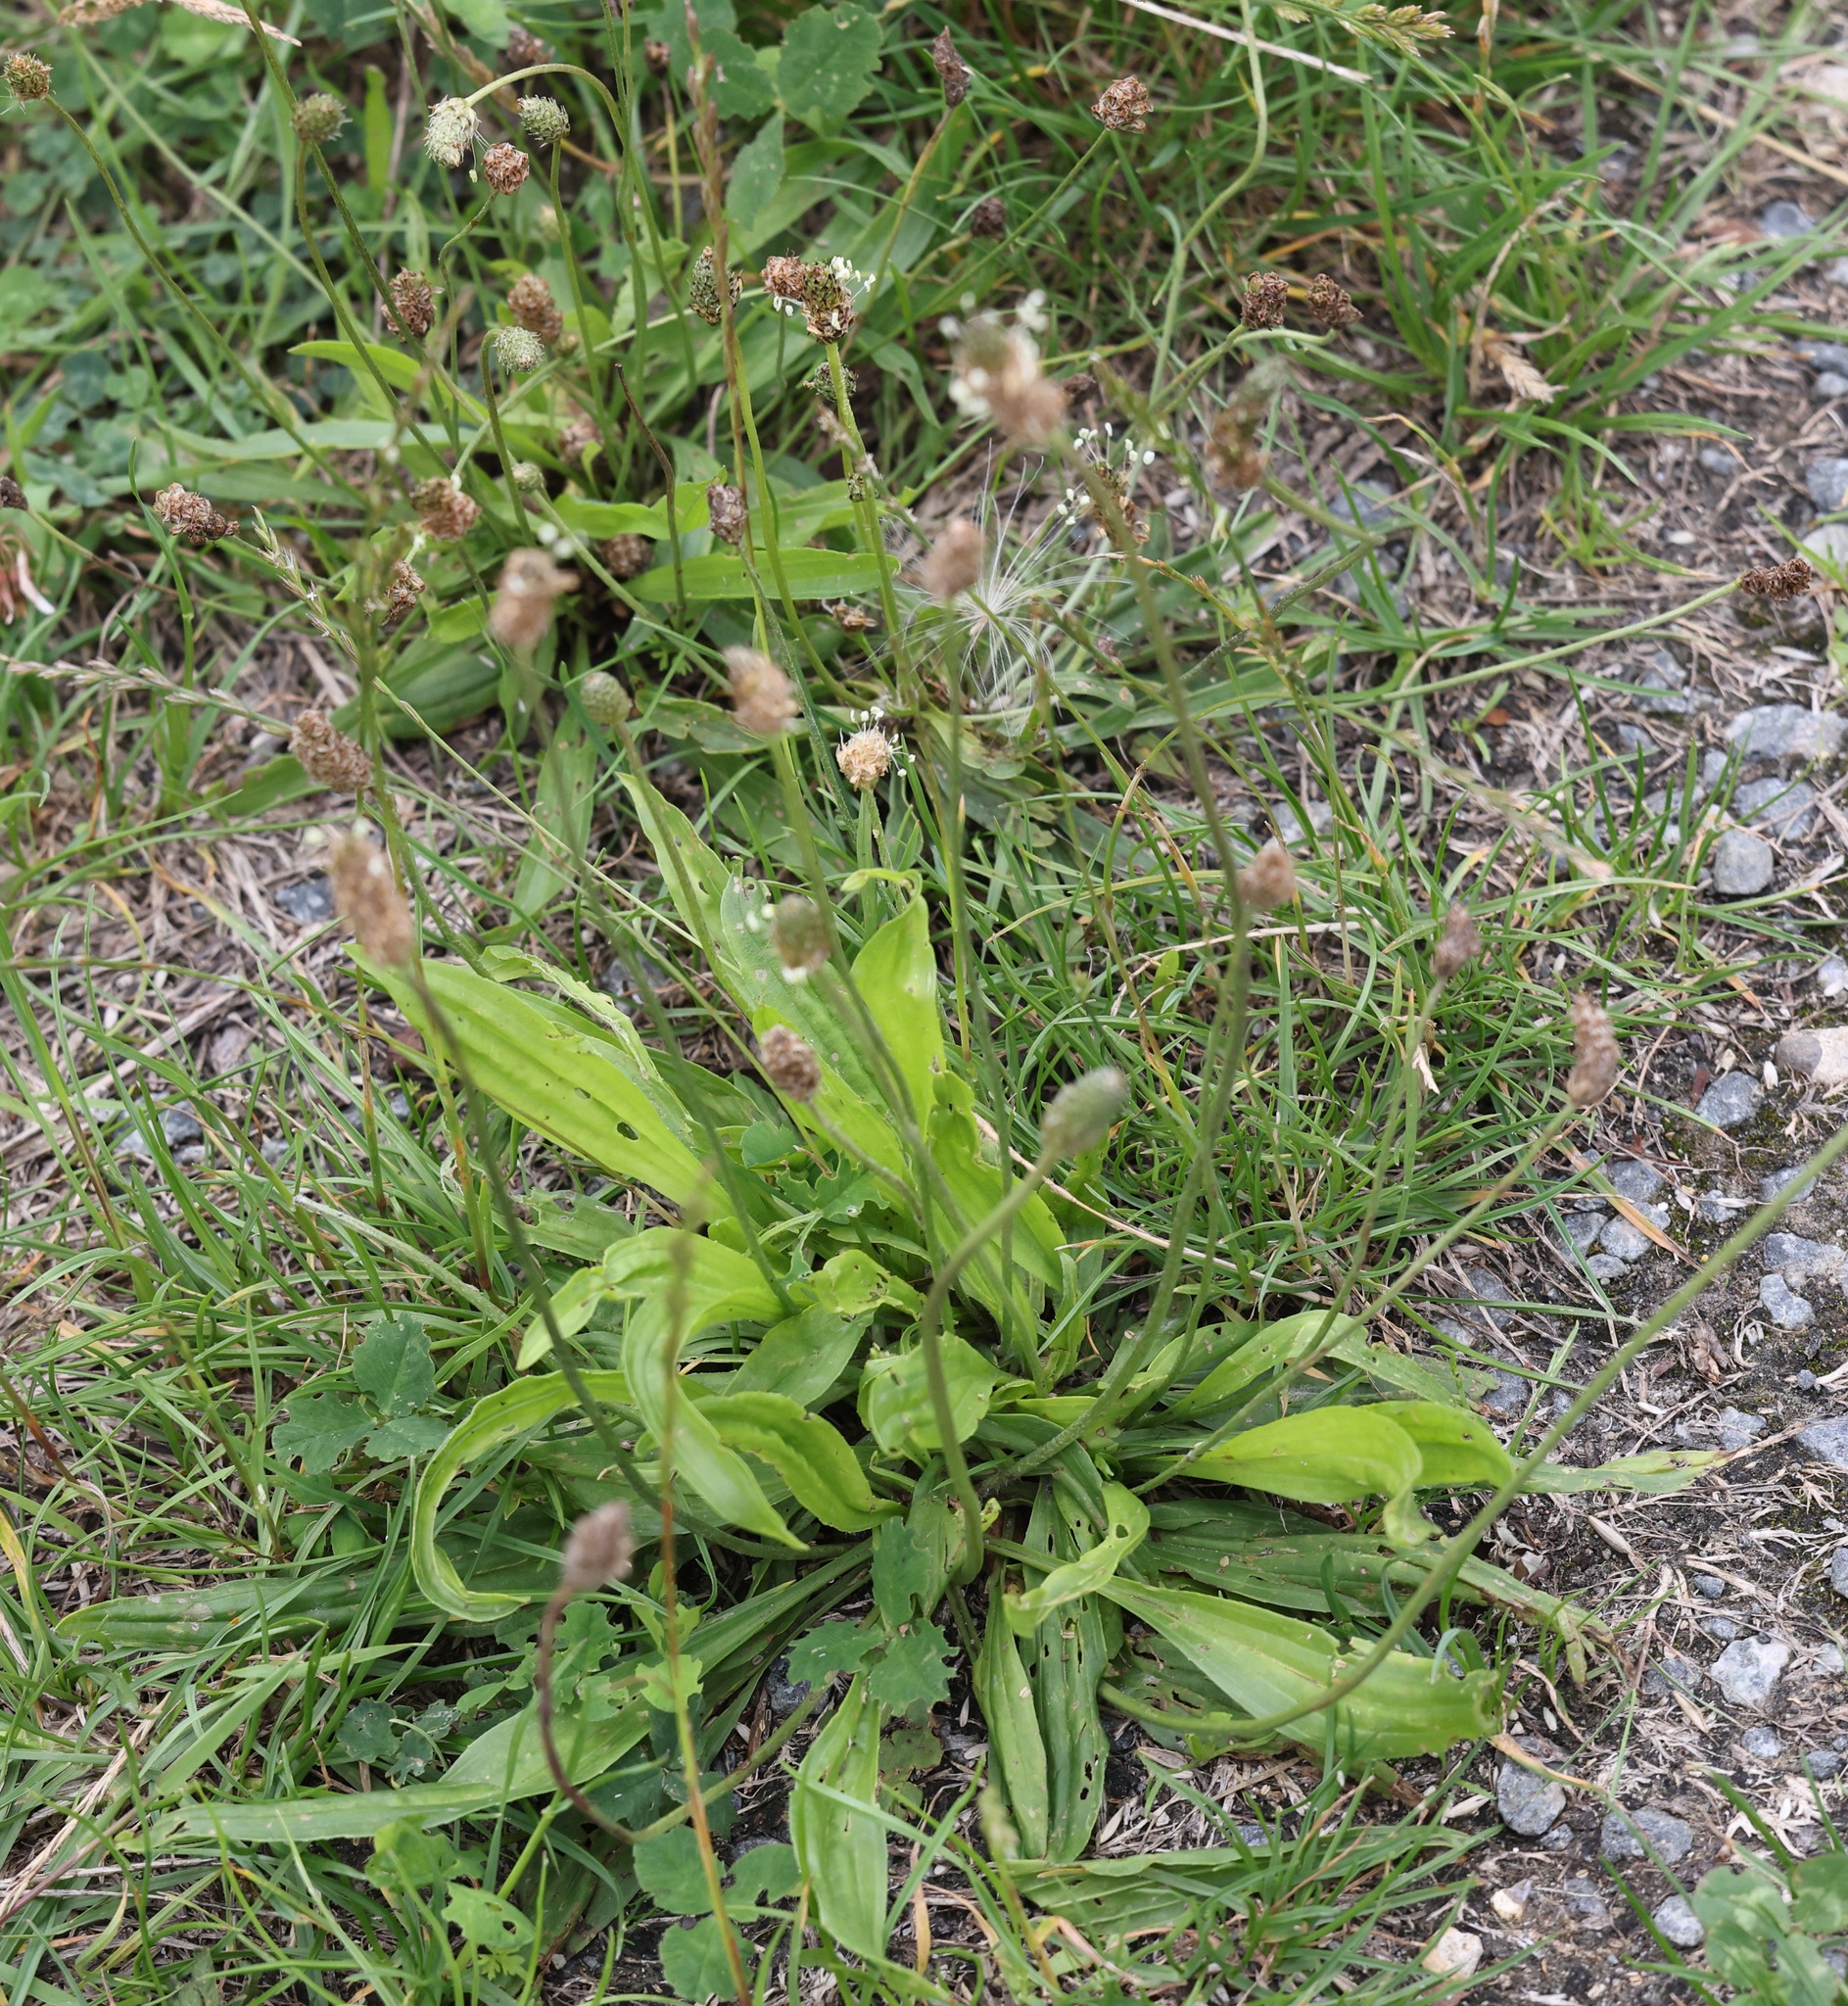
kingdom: Plantae
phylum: Tracheophyta
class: Magnoliopsida
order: Lamiales
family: Plantaginaceae
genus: Plantago
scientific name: Plantago lanceolata
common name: Ribwort plantain
